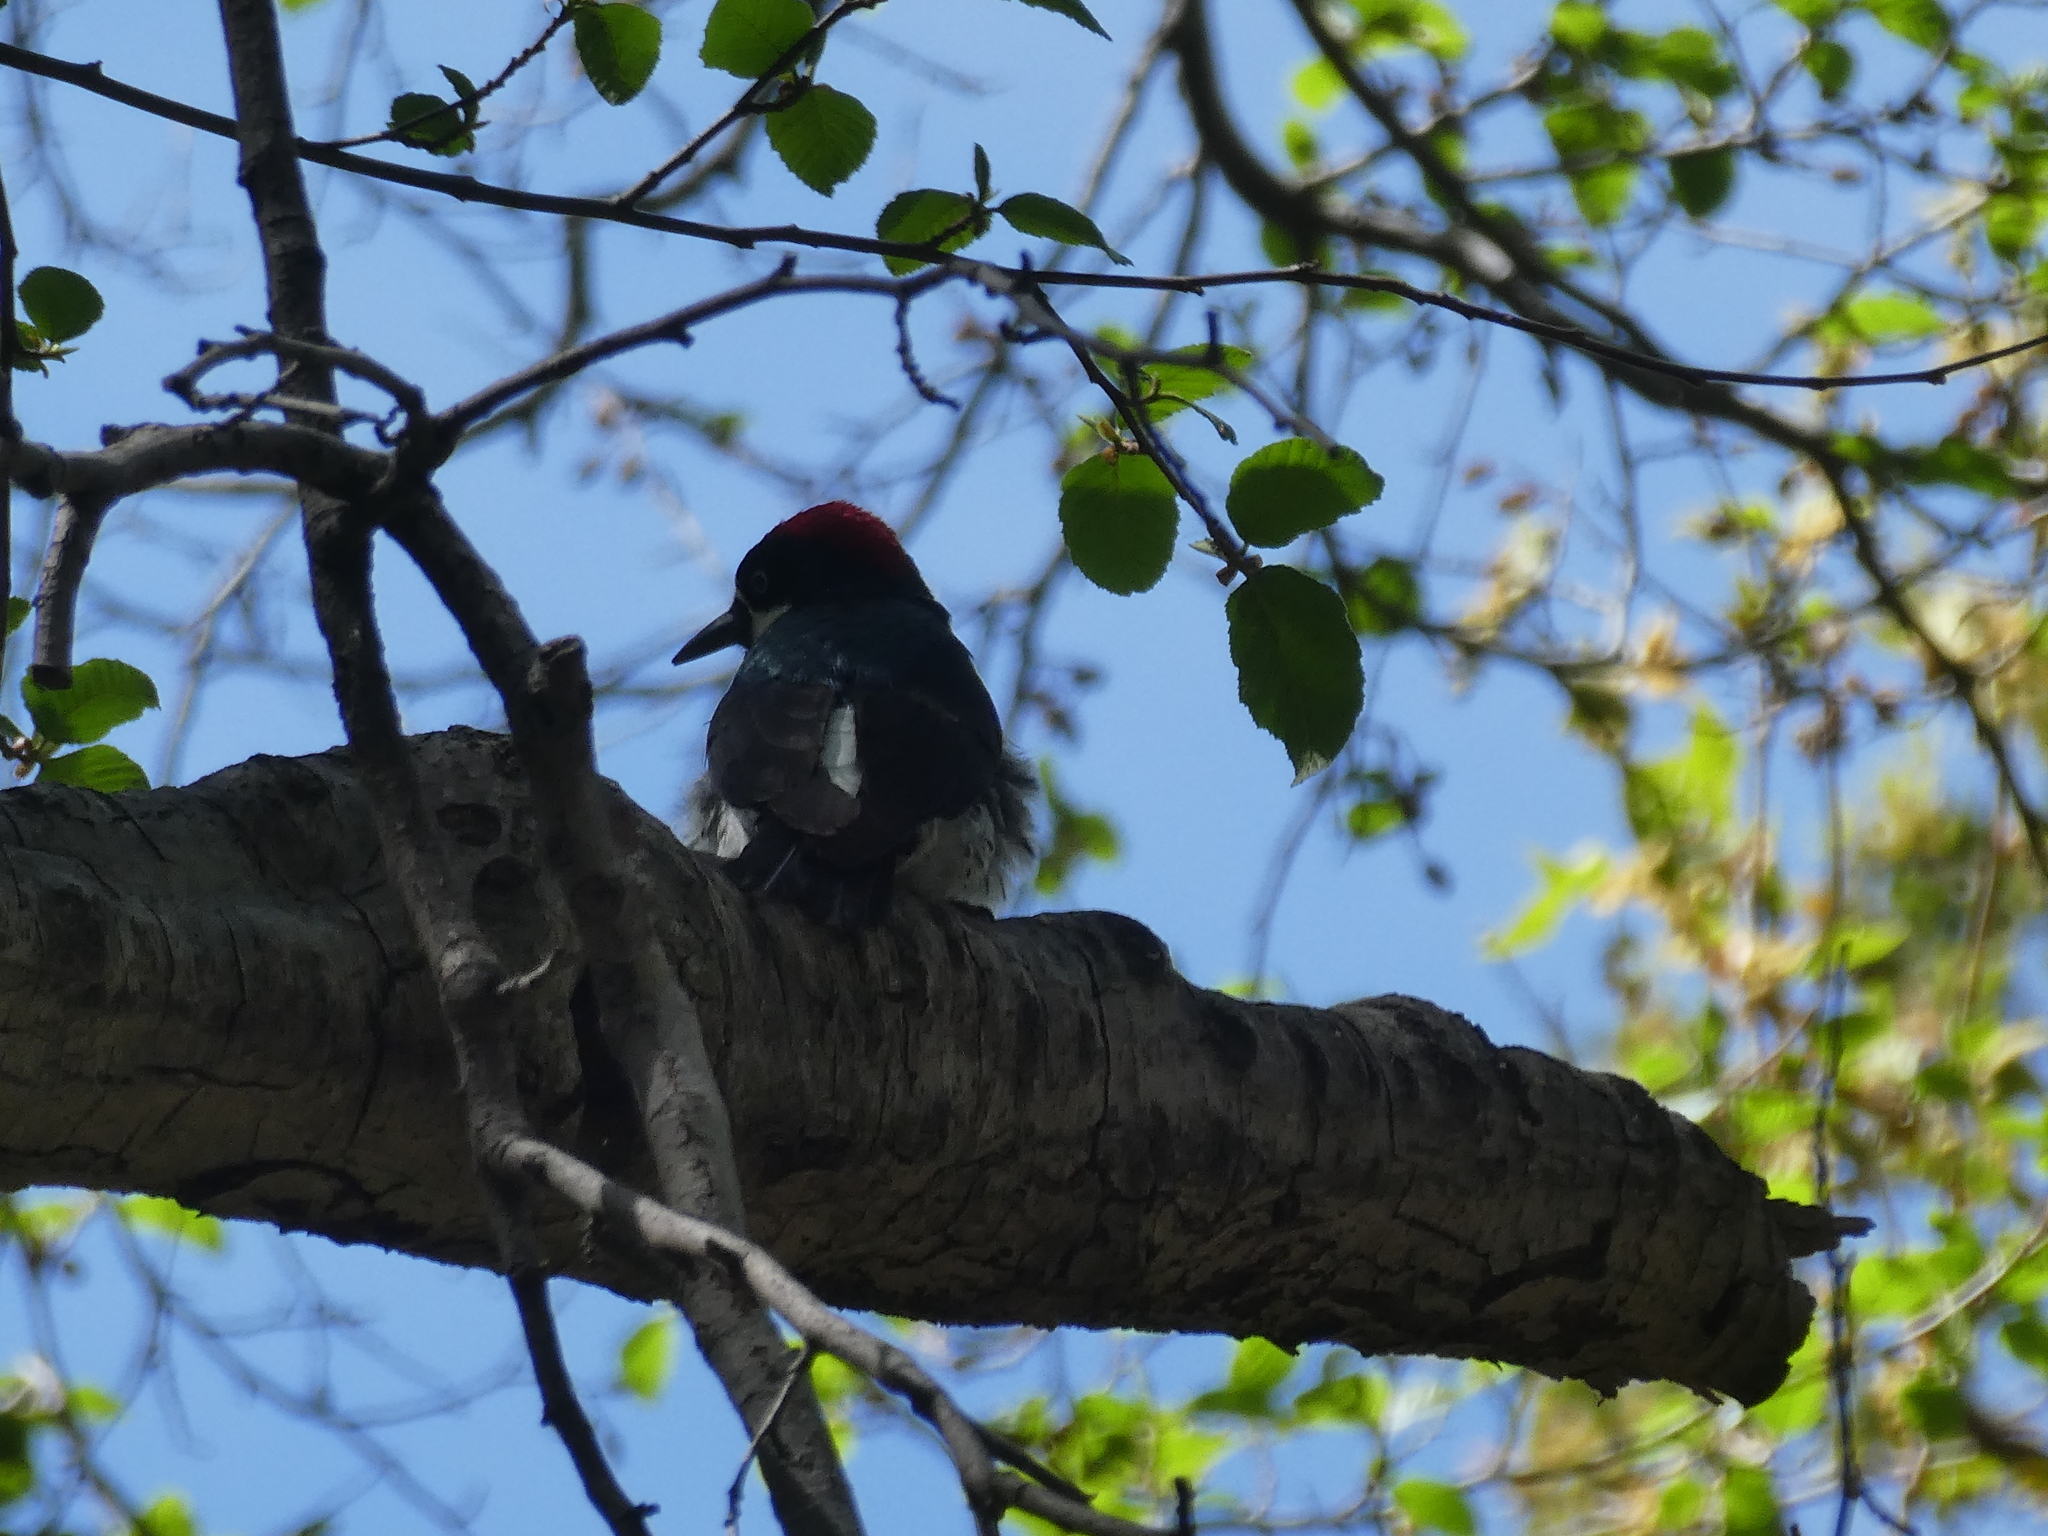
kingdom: Animalia
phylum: Chordata
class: Aves
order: Piciformes
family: Picidae
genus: Melanerpes
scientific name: Melanerpes formicivorus
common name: Acorn woodpecker
